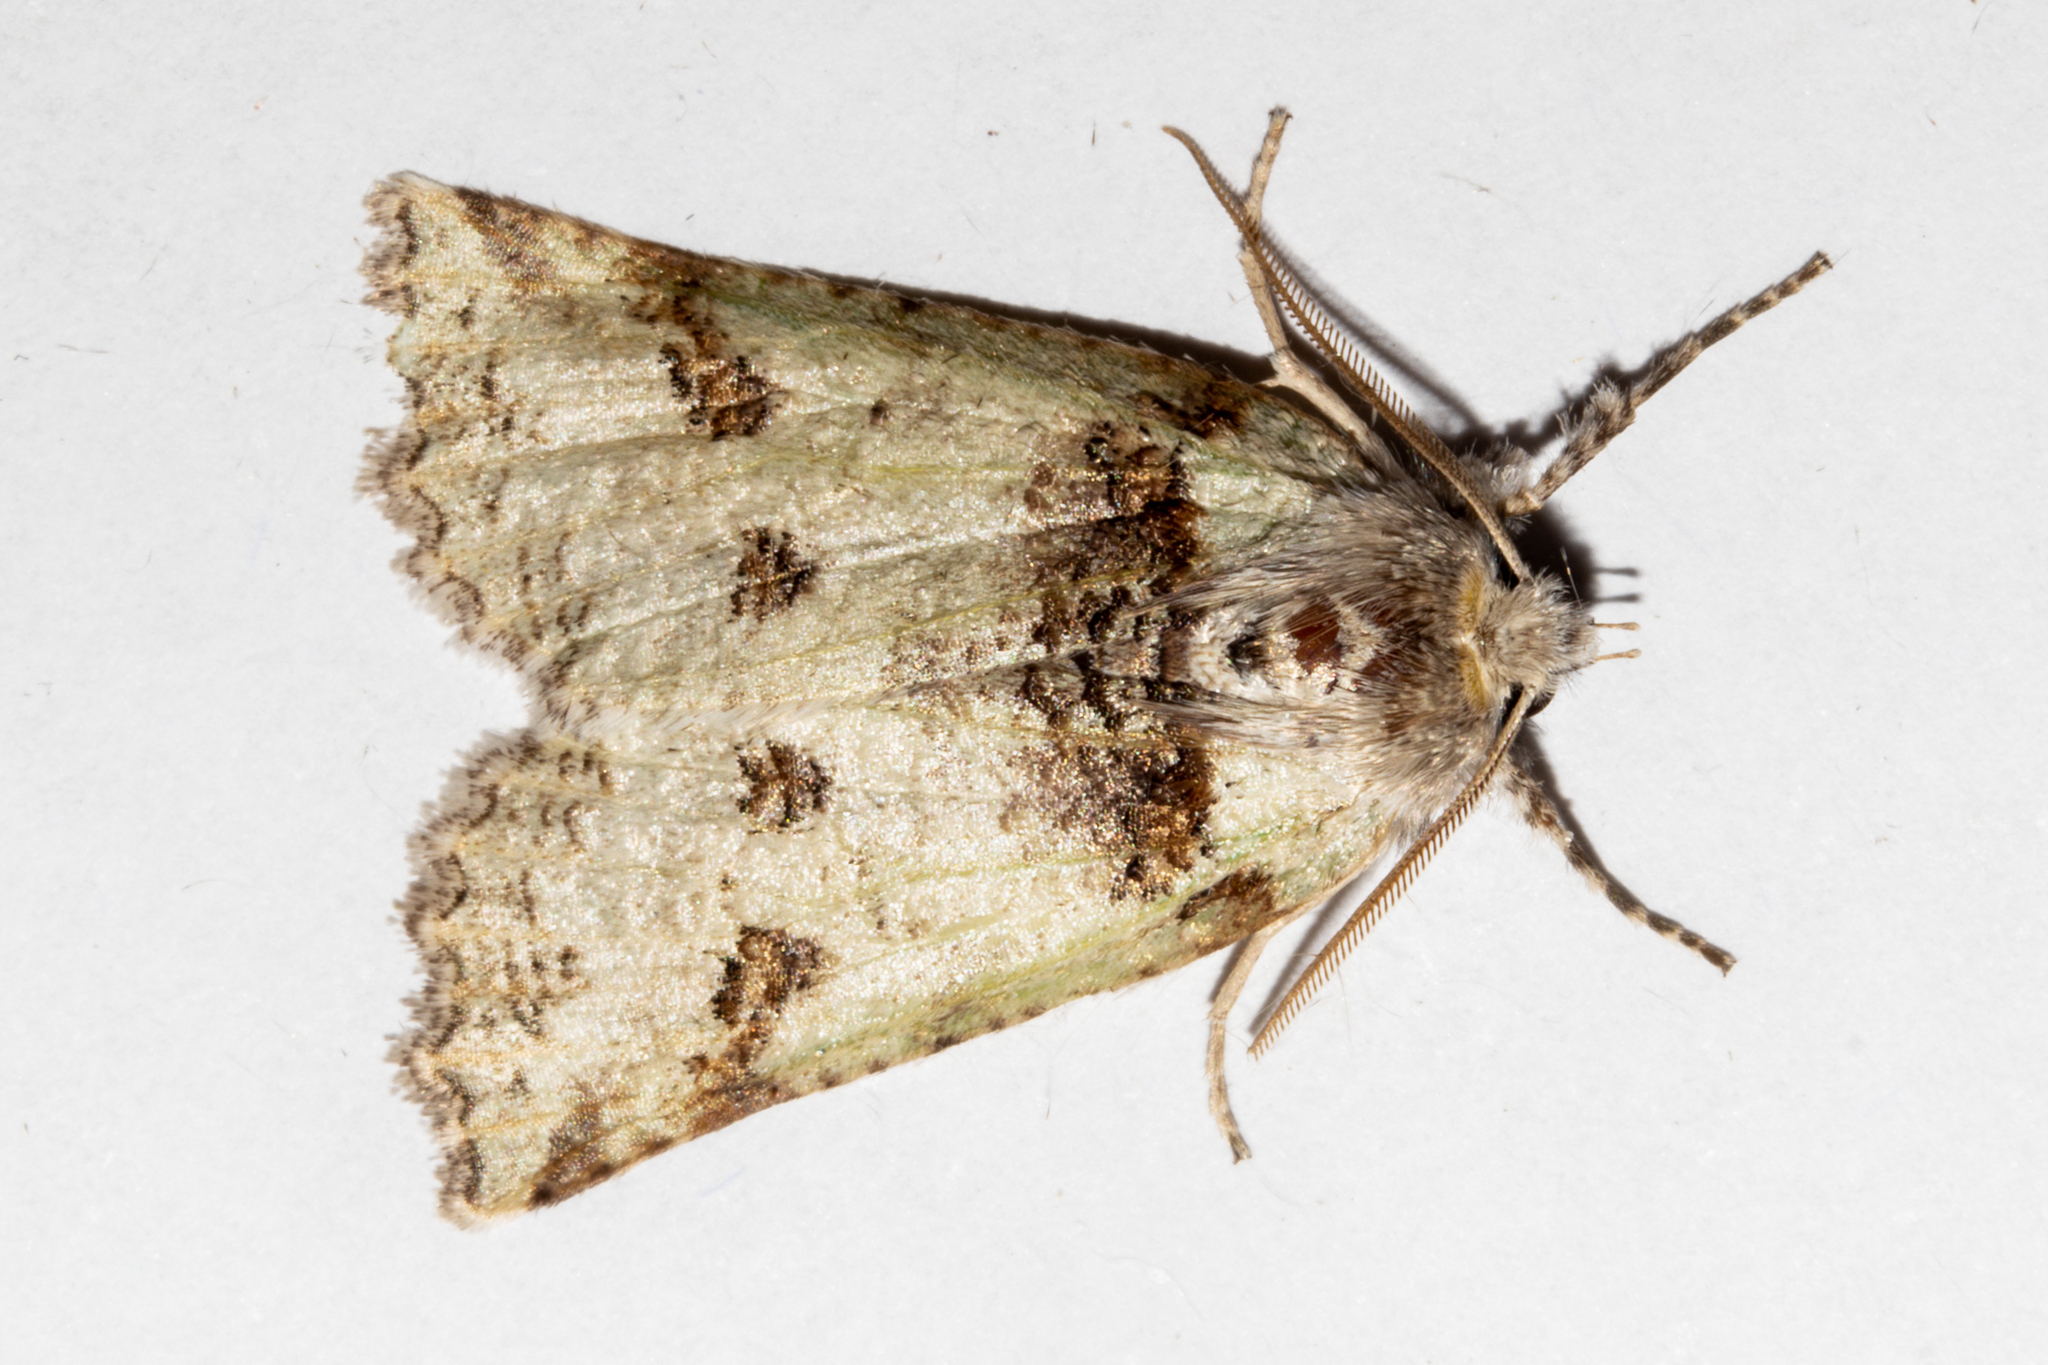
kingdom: Animalia
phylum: Arthropoda
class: Insecta
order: Lepidoptera
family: Geometridae
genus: Declana
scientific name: Declana floccosa
